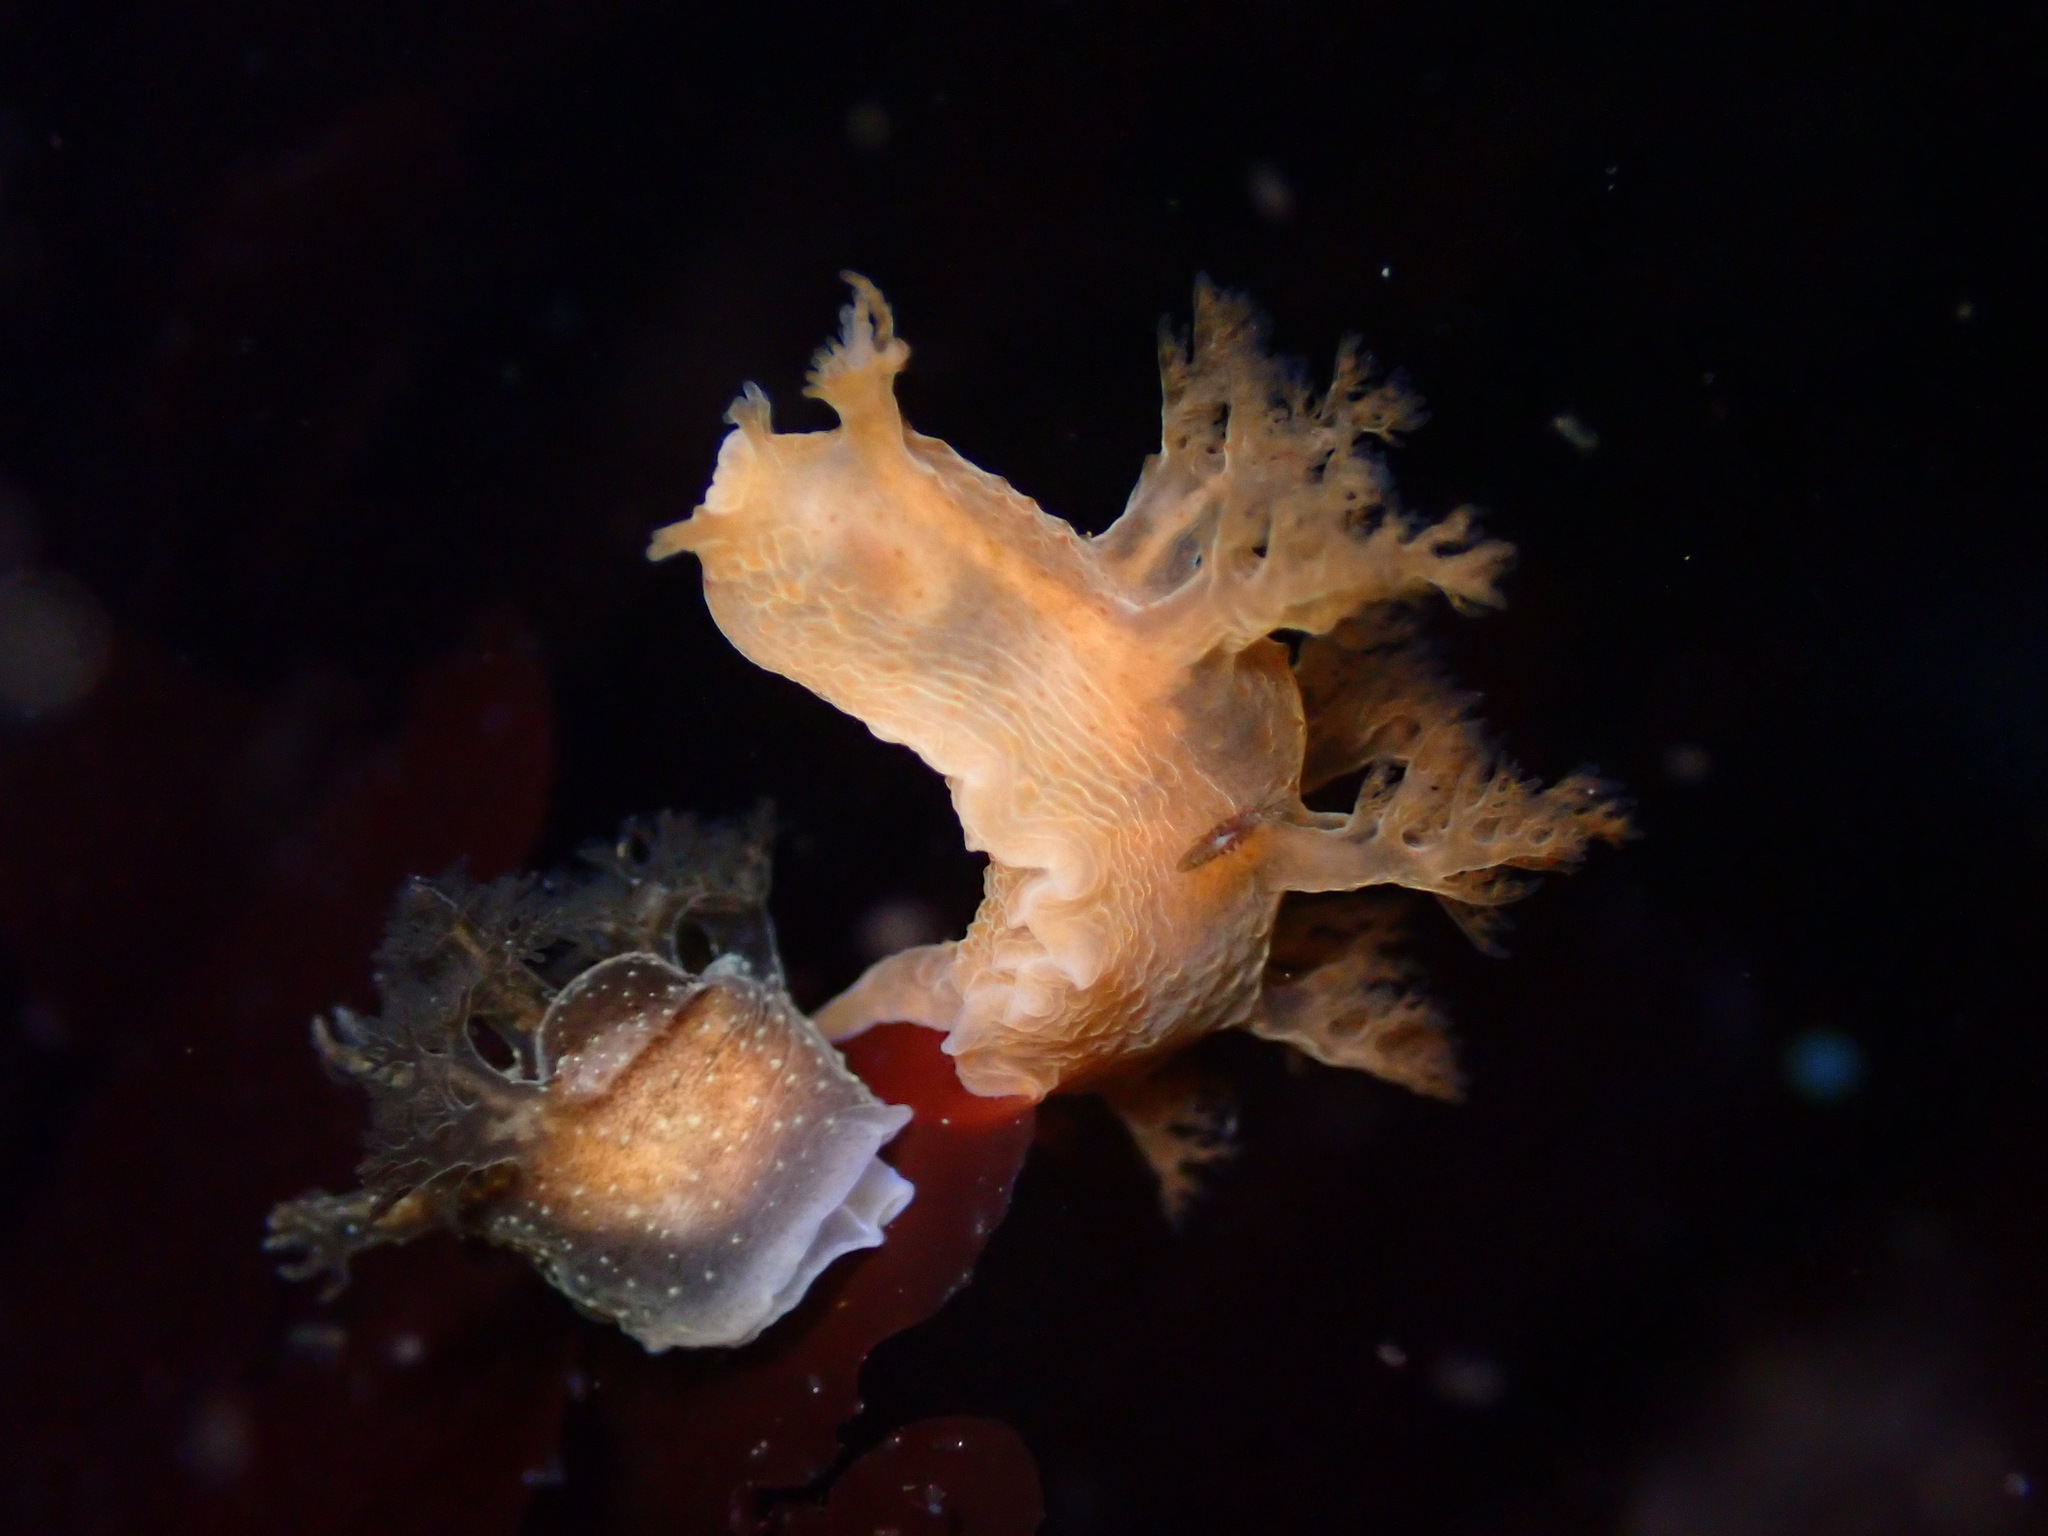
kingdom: Animalia
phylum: Mollusca
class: Gastropoda
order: Nudibranchia
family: Dendronotidae
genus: Dendronotus
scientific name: Dendronotus subramosus
